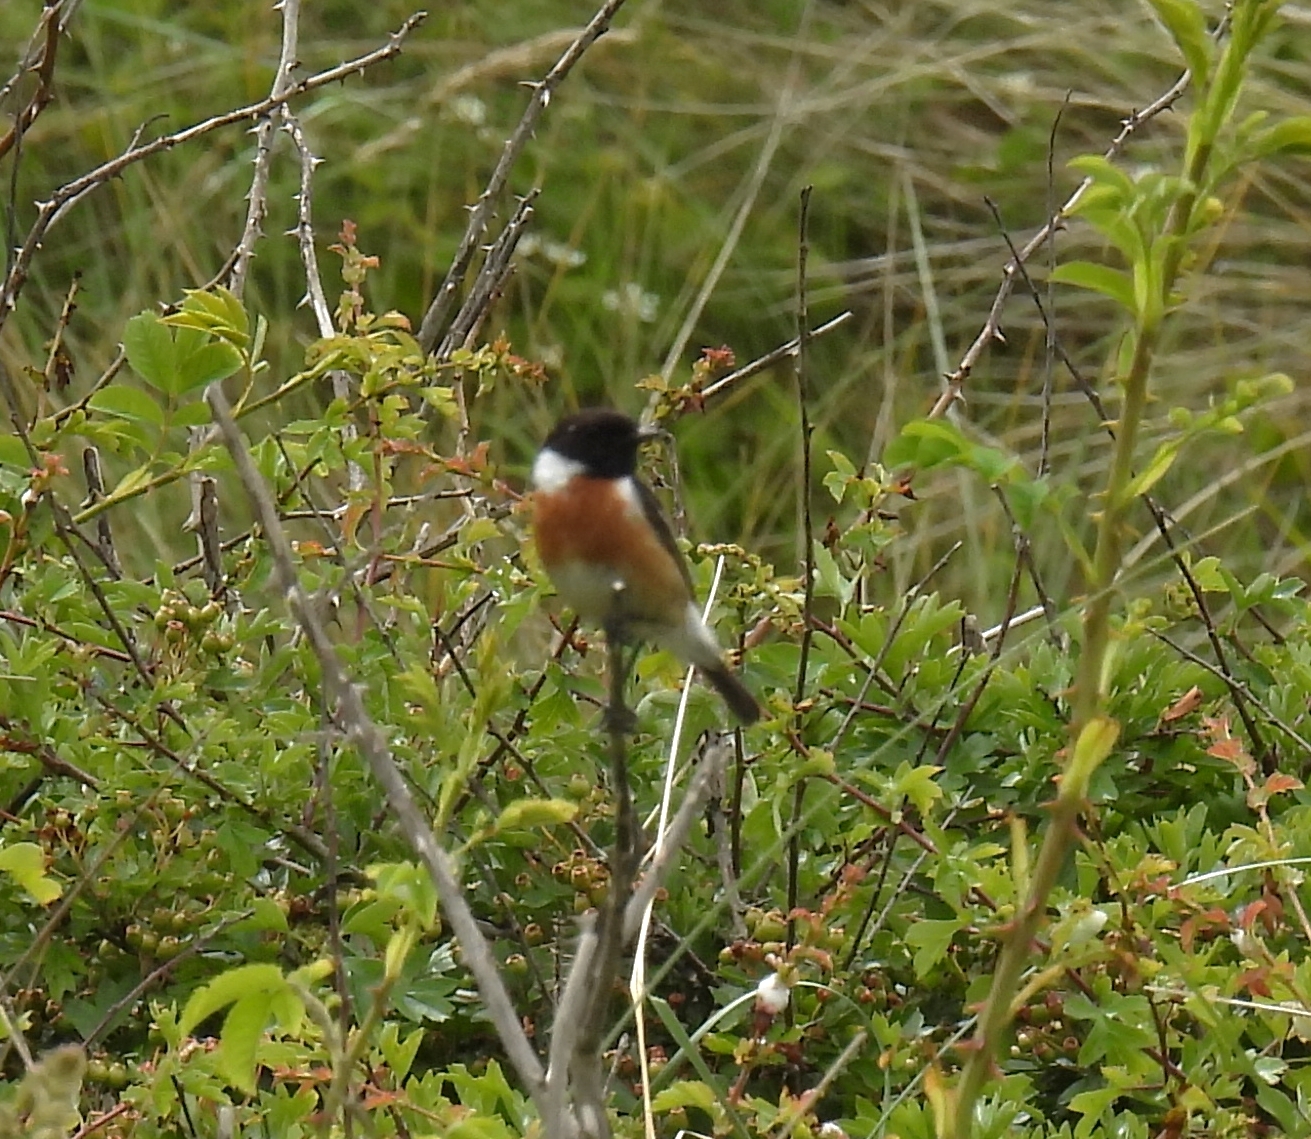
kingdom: Animalia
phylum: Chordata
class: Aves
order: Passeriformes
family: Muscicapidae
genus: Saxicola
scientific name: Saxicola rubicola
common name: European stonechat
